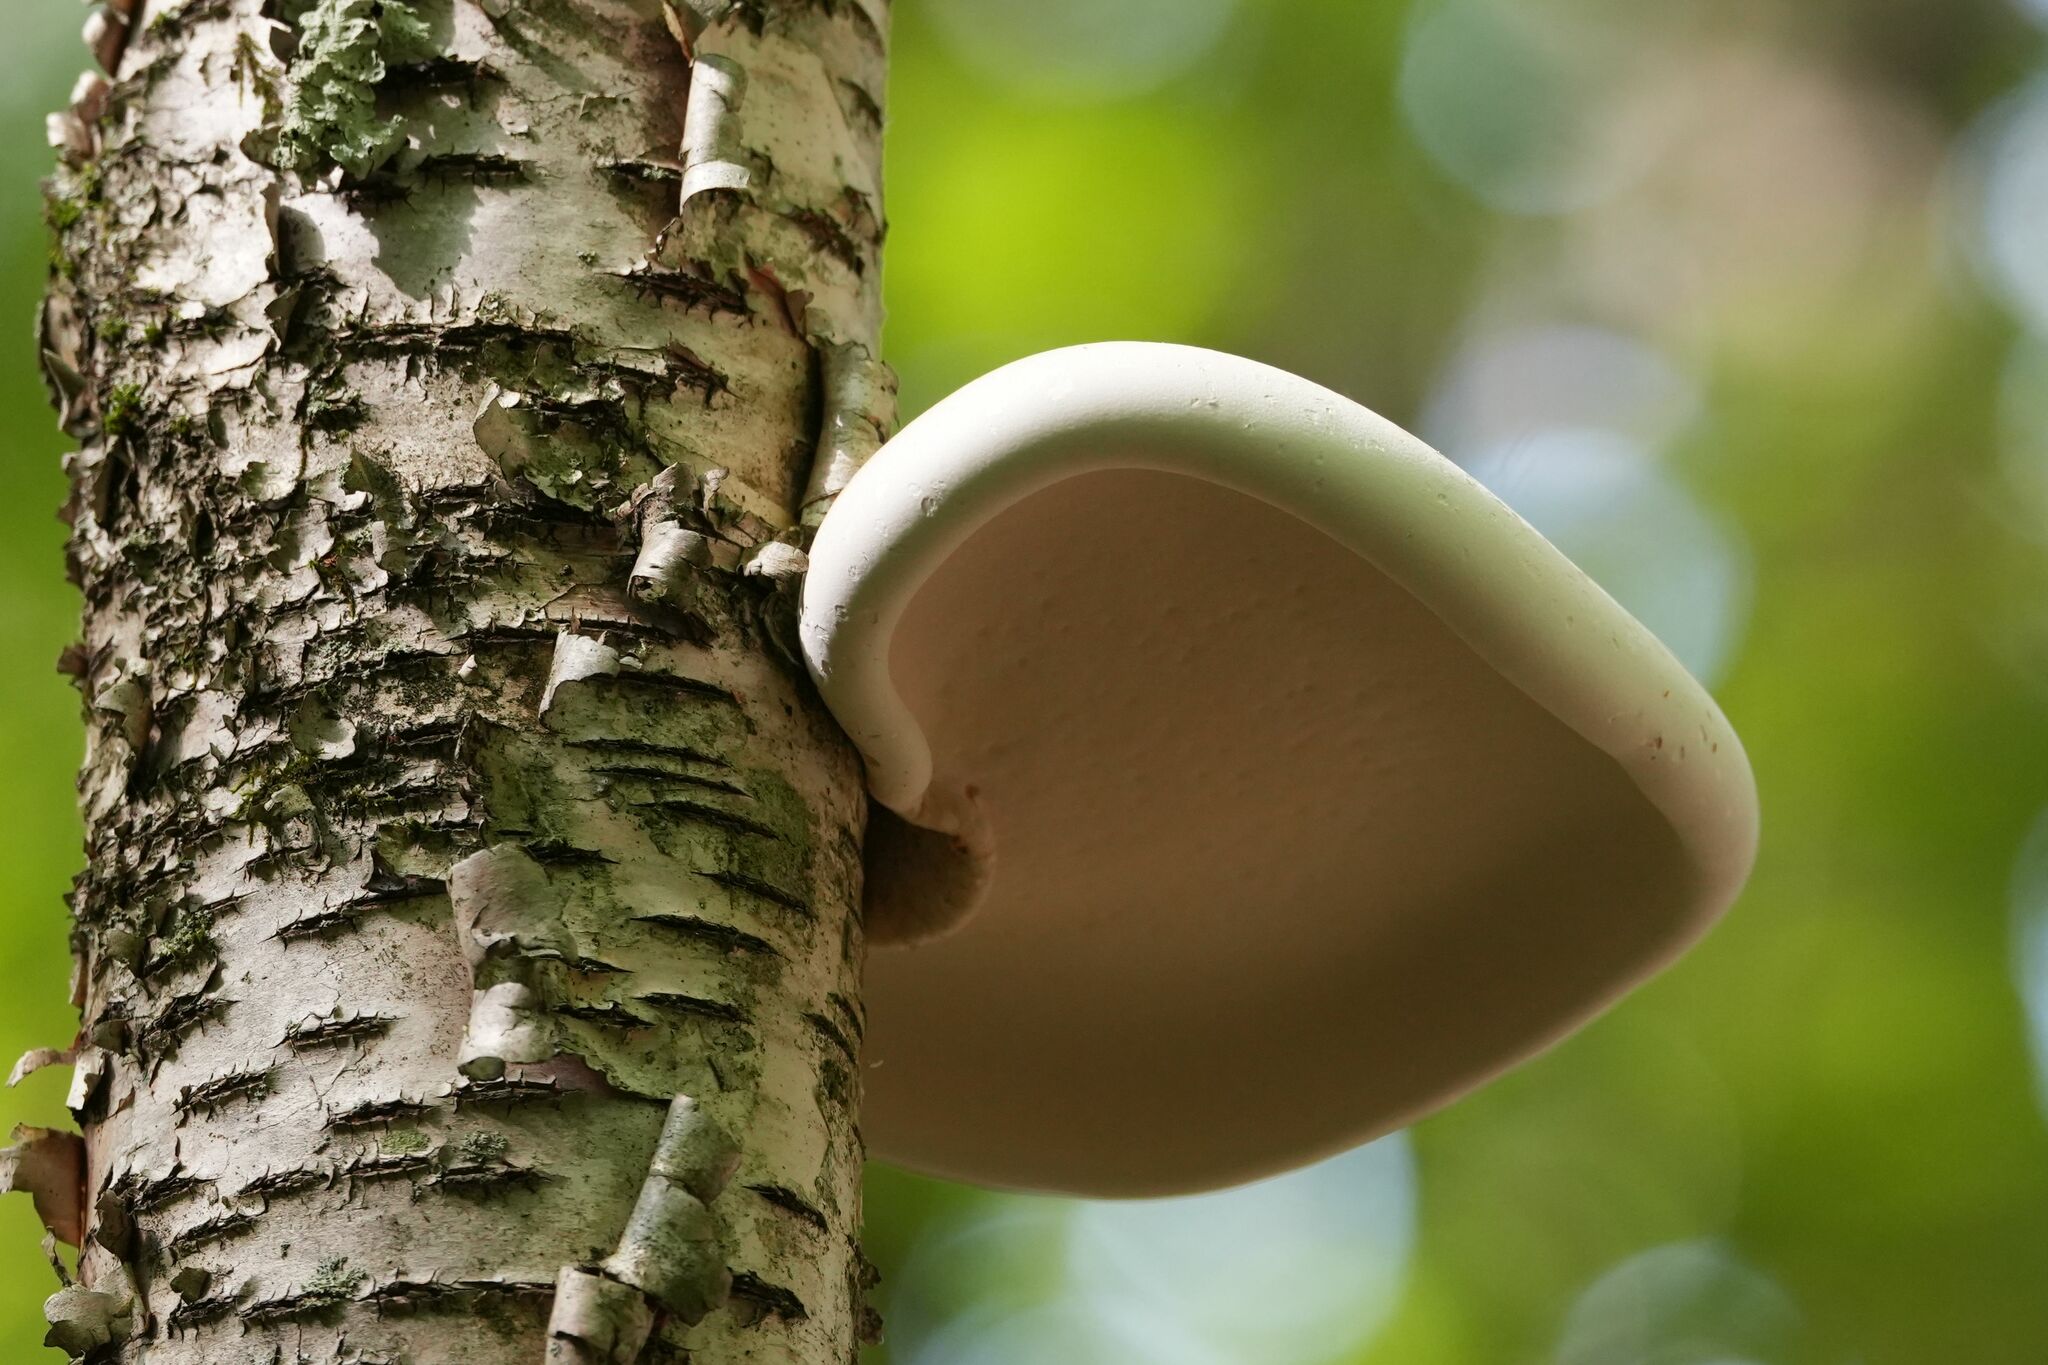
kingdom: Fungi
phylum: Basidiomycota
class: Agaricomycetes
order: Polyporales
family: Fomitopsidaceae
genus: Fomitopsis
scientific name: Fomitopsis betulina
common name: Birch polypore
